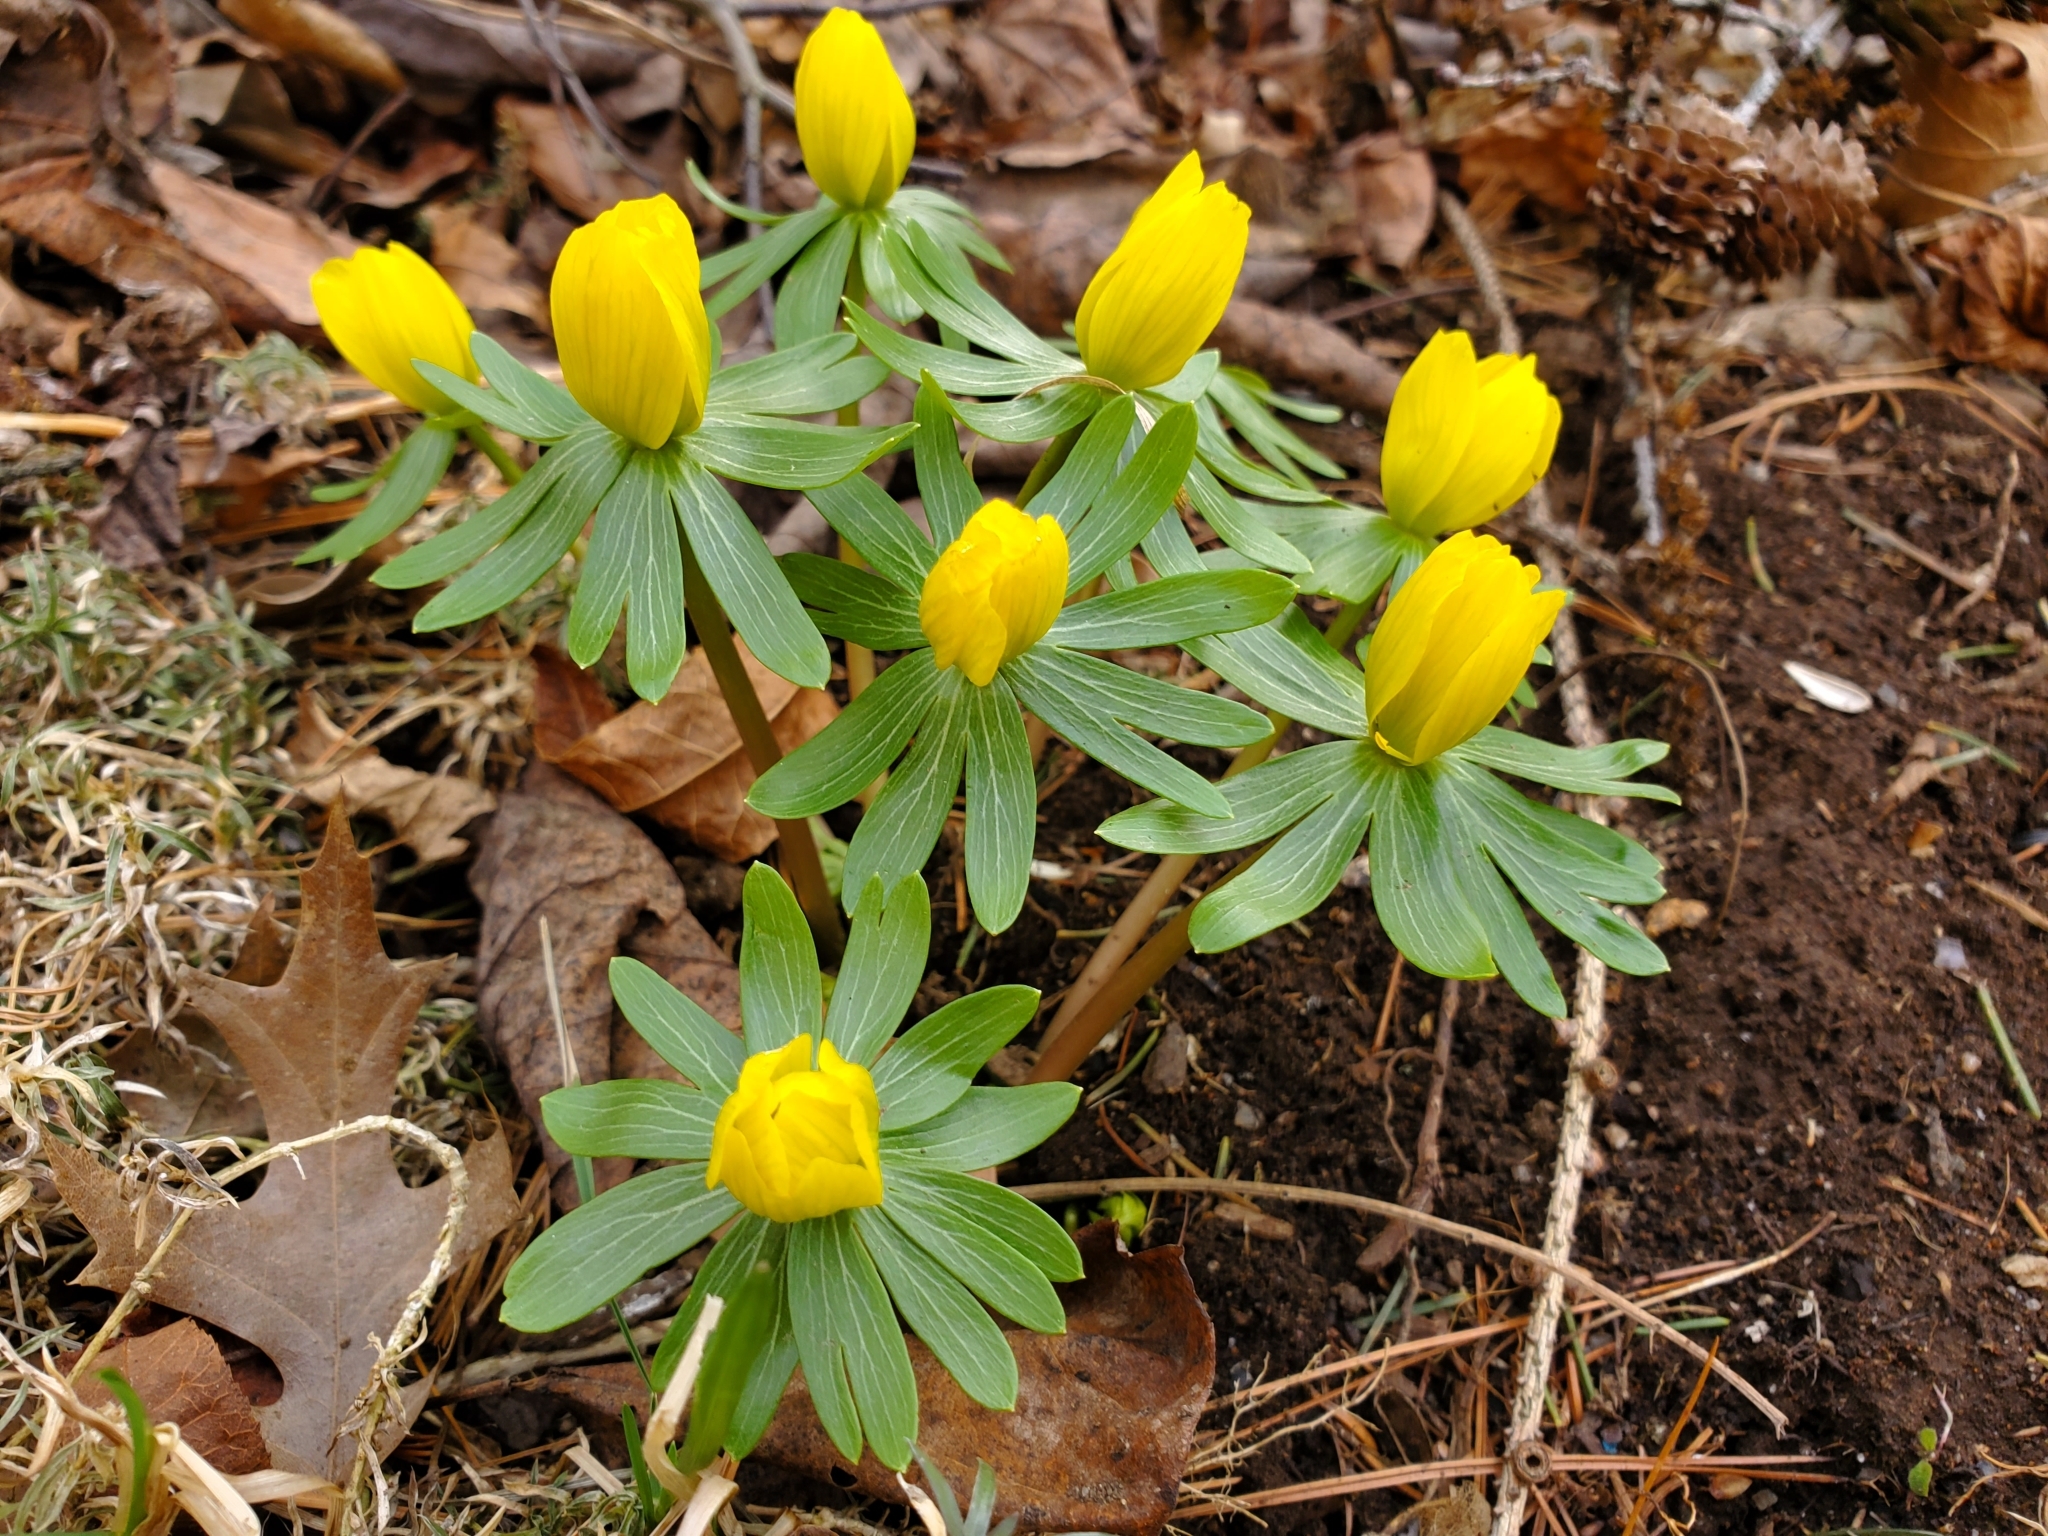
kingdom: Plantae
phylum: Tracheophyta
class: Magnoliopsida
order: Ranunculales
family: Ranunculaceae
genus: Eranthis
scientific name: Eranthis hyemalis
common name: Winter aconite
